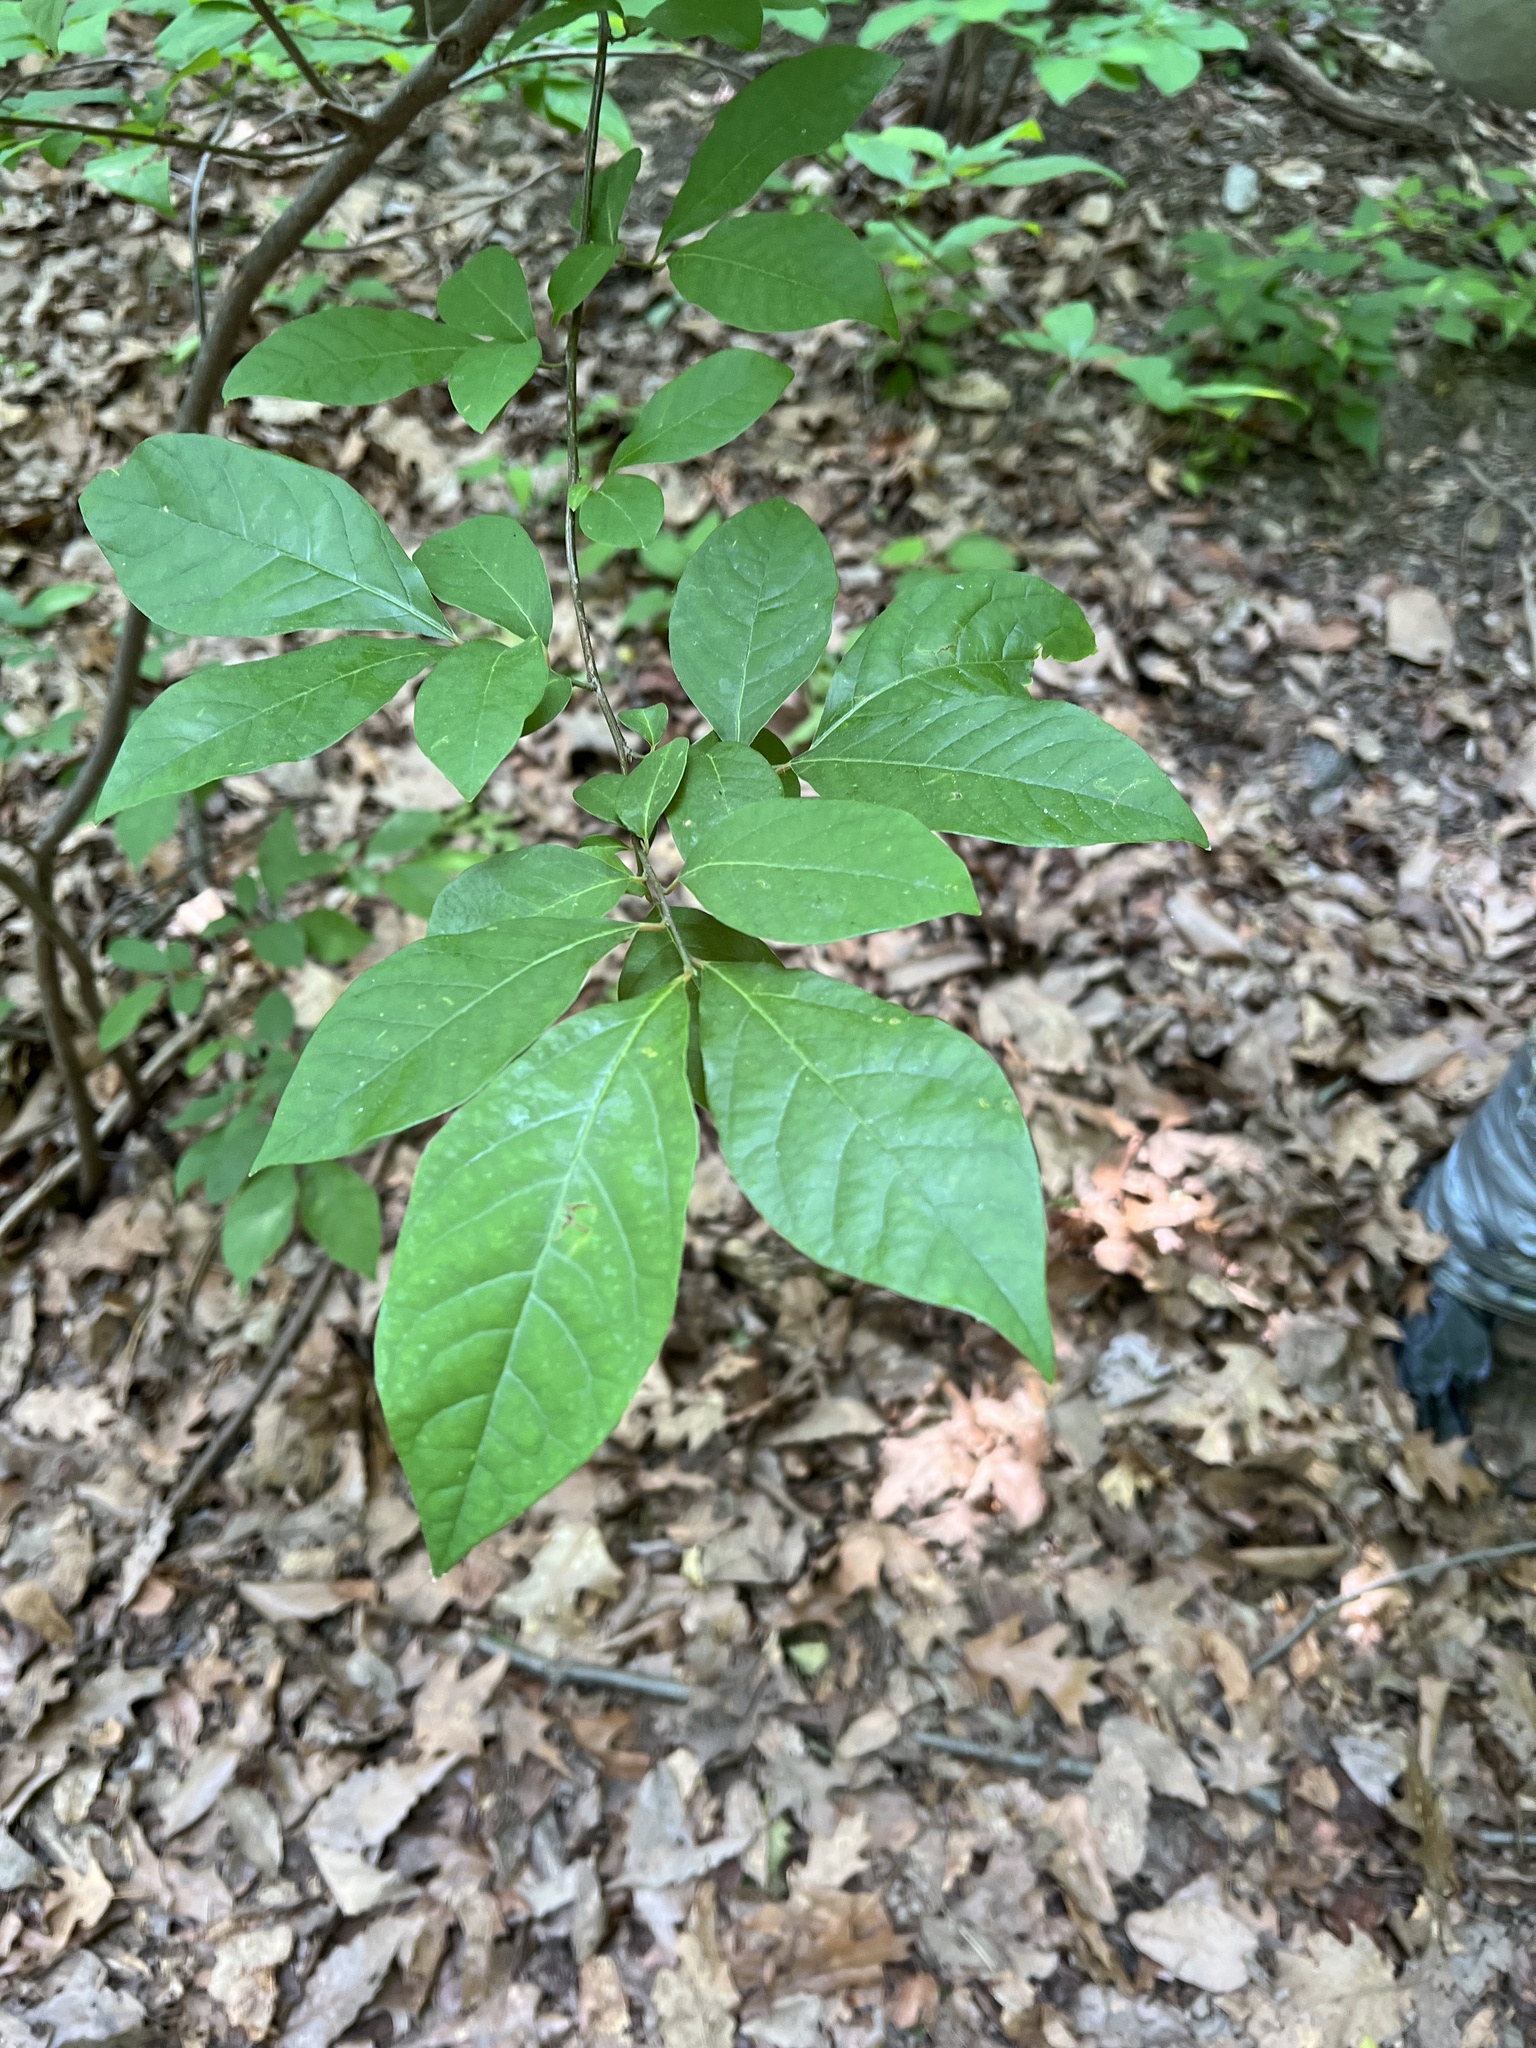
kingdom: Plantae
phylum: Tracheophyta
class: Magnoliopsida
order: Laurales
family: Lauraceae
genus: Lindera
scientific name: Lindera benzoin
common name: Spicebush
